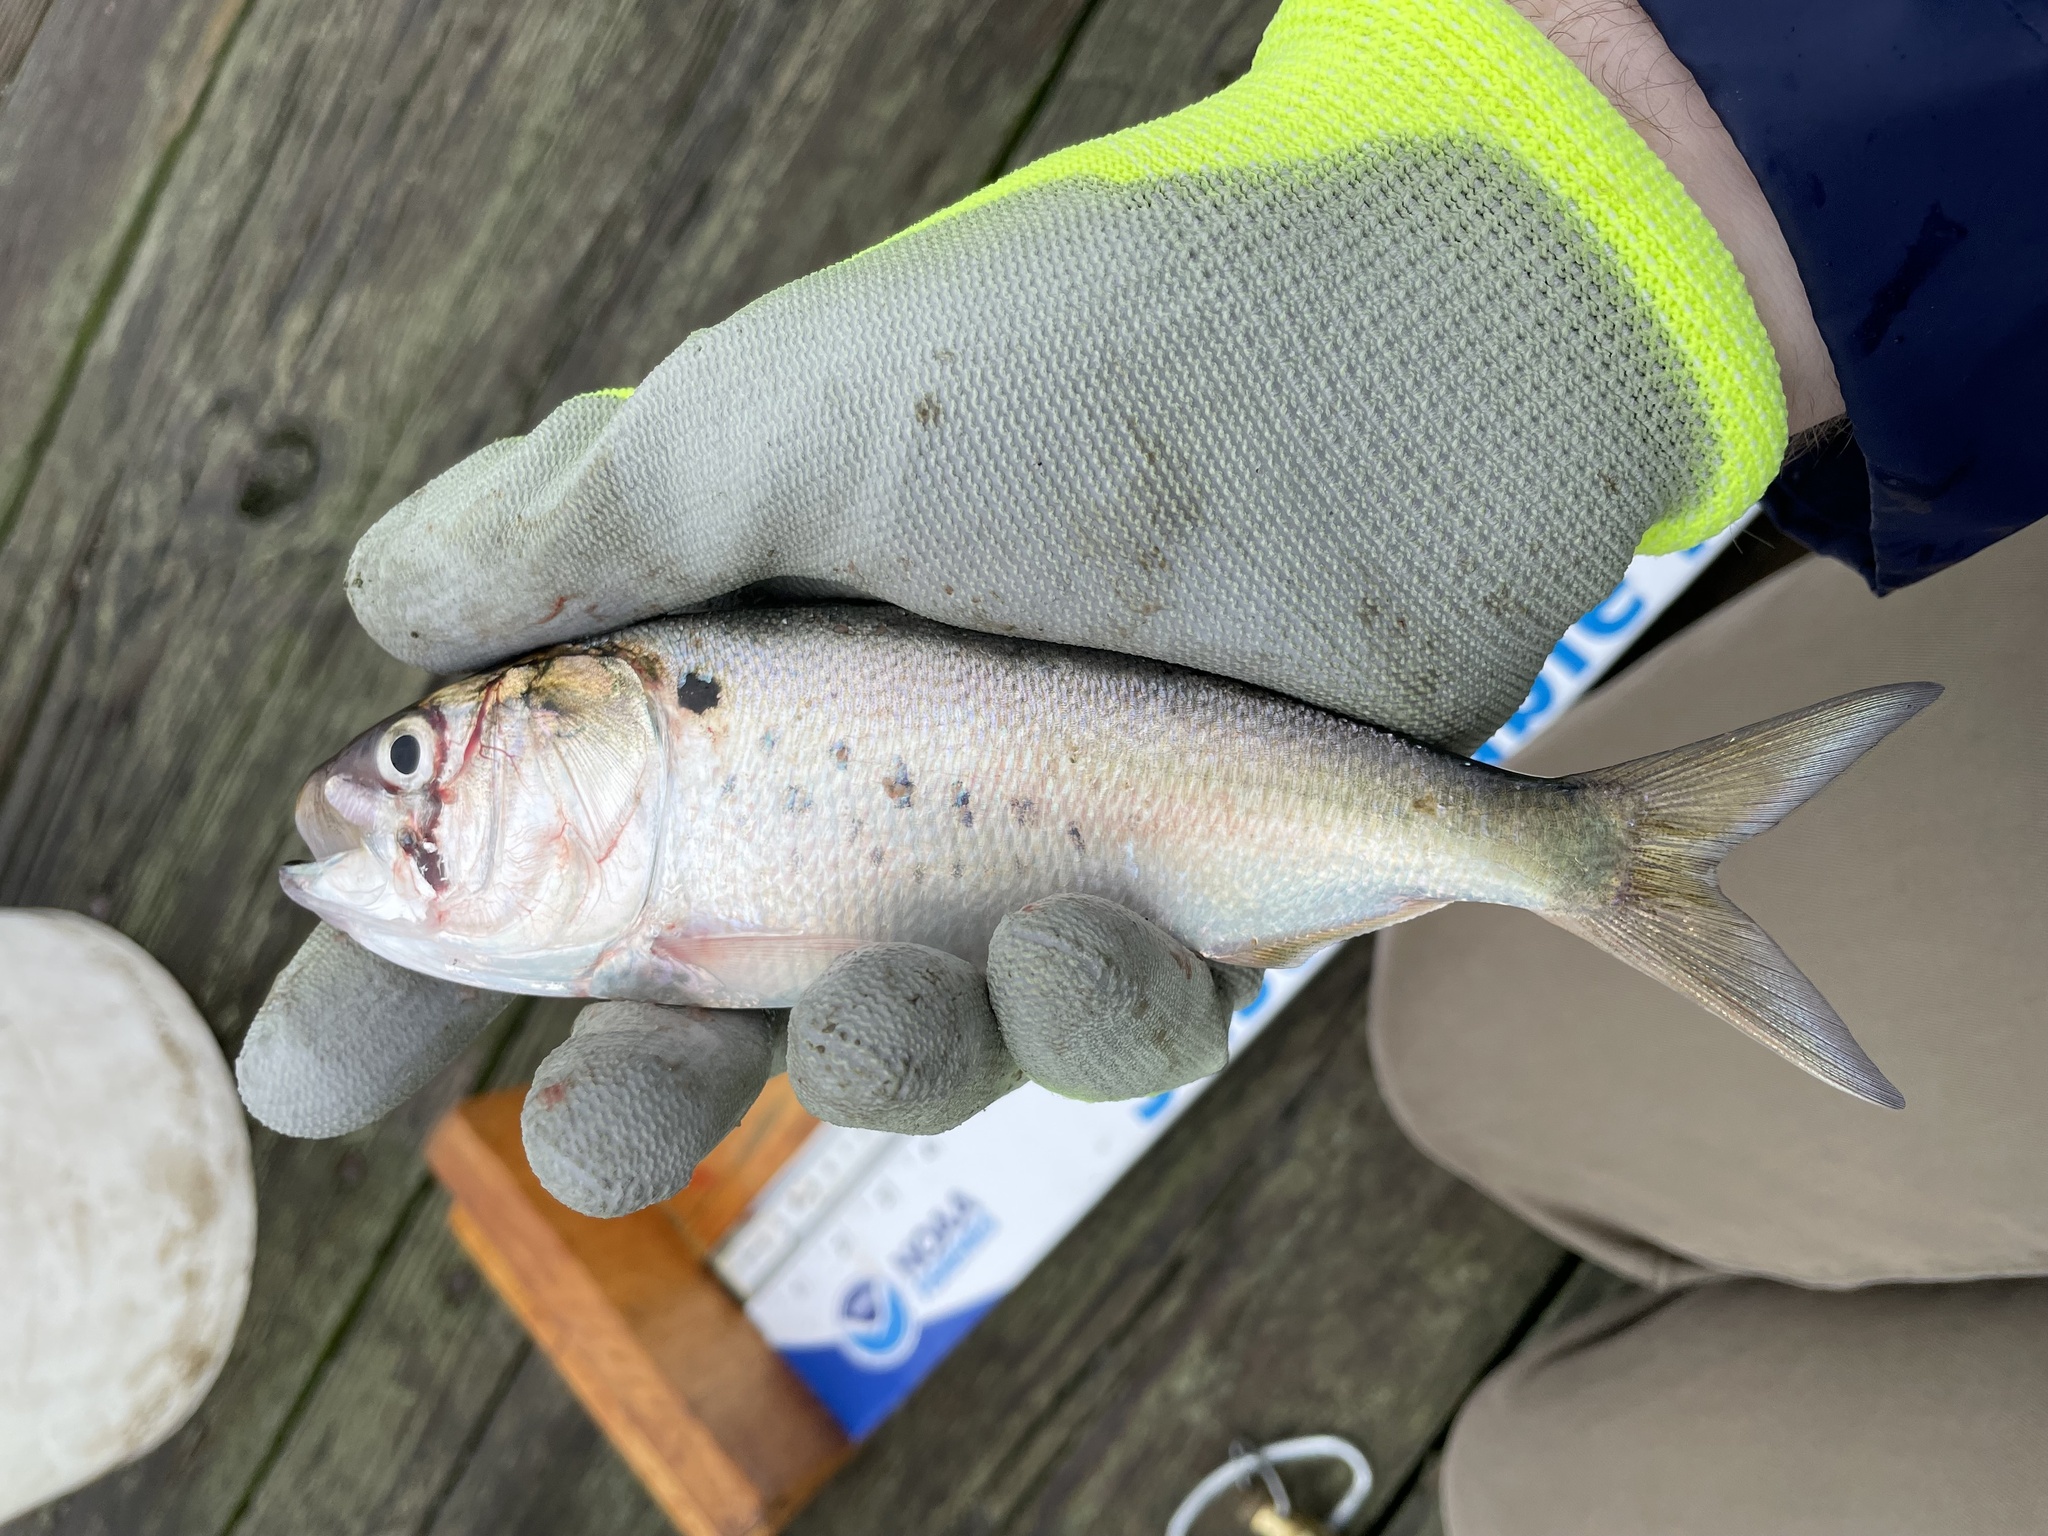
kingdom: Animalia
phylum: Chordata
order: Clupeiformes
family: Clupeidae
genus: Brevoortia
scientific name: Brevoortia tyrannus
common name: Atlantic menhaden
